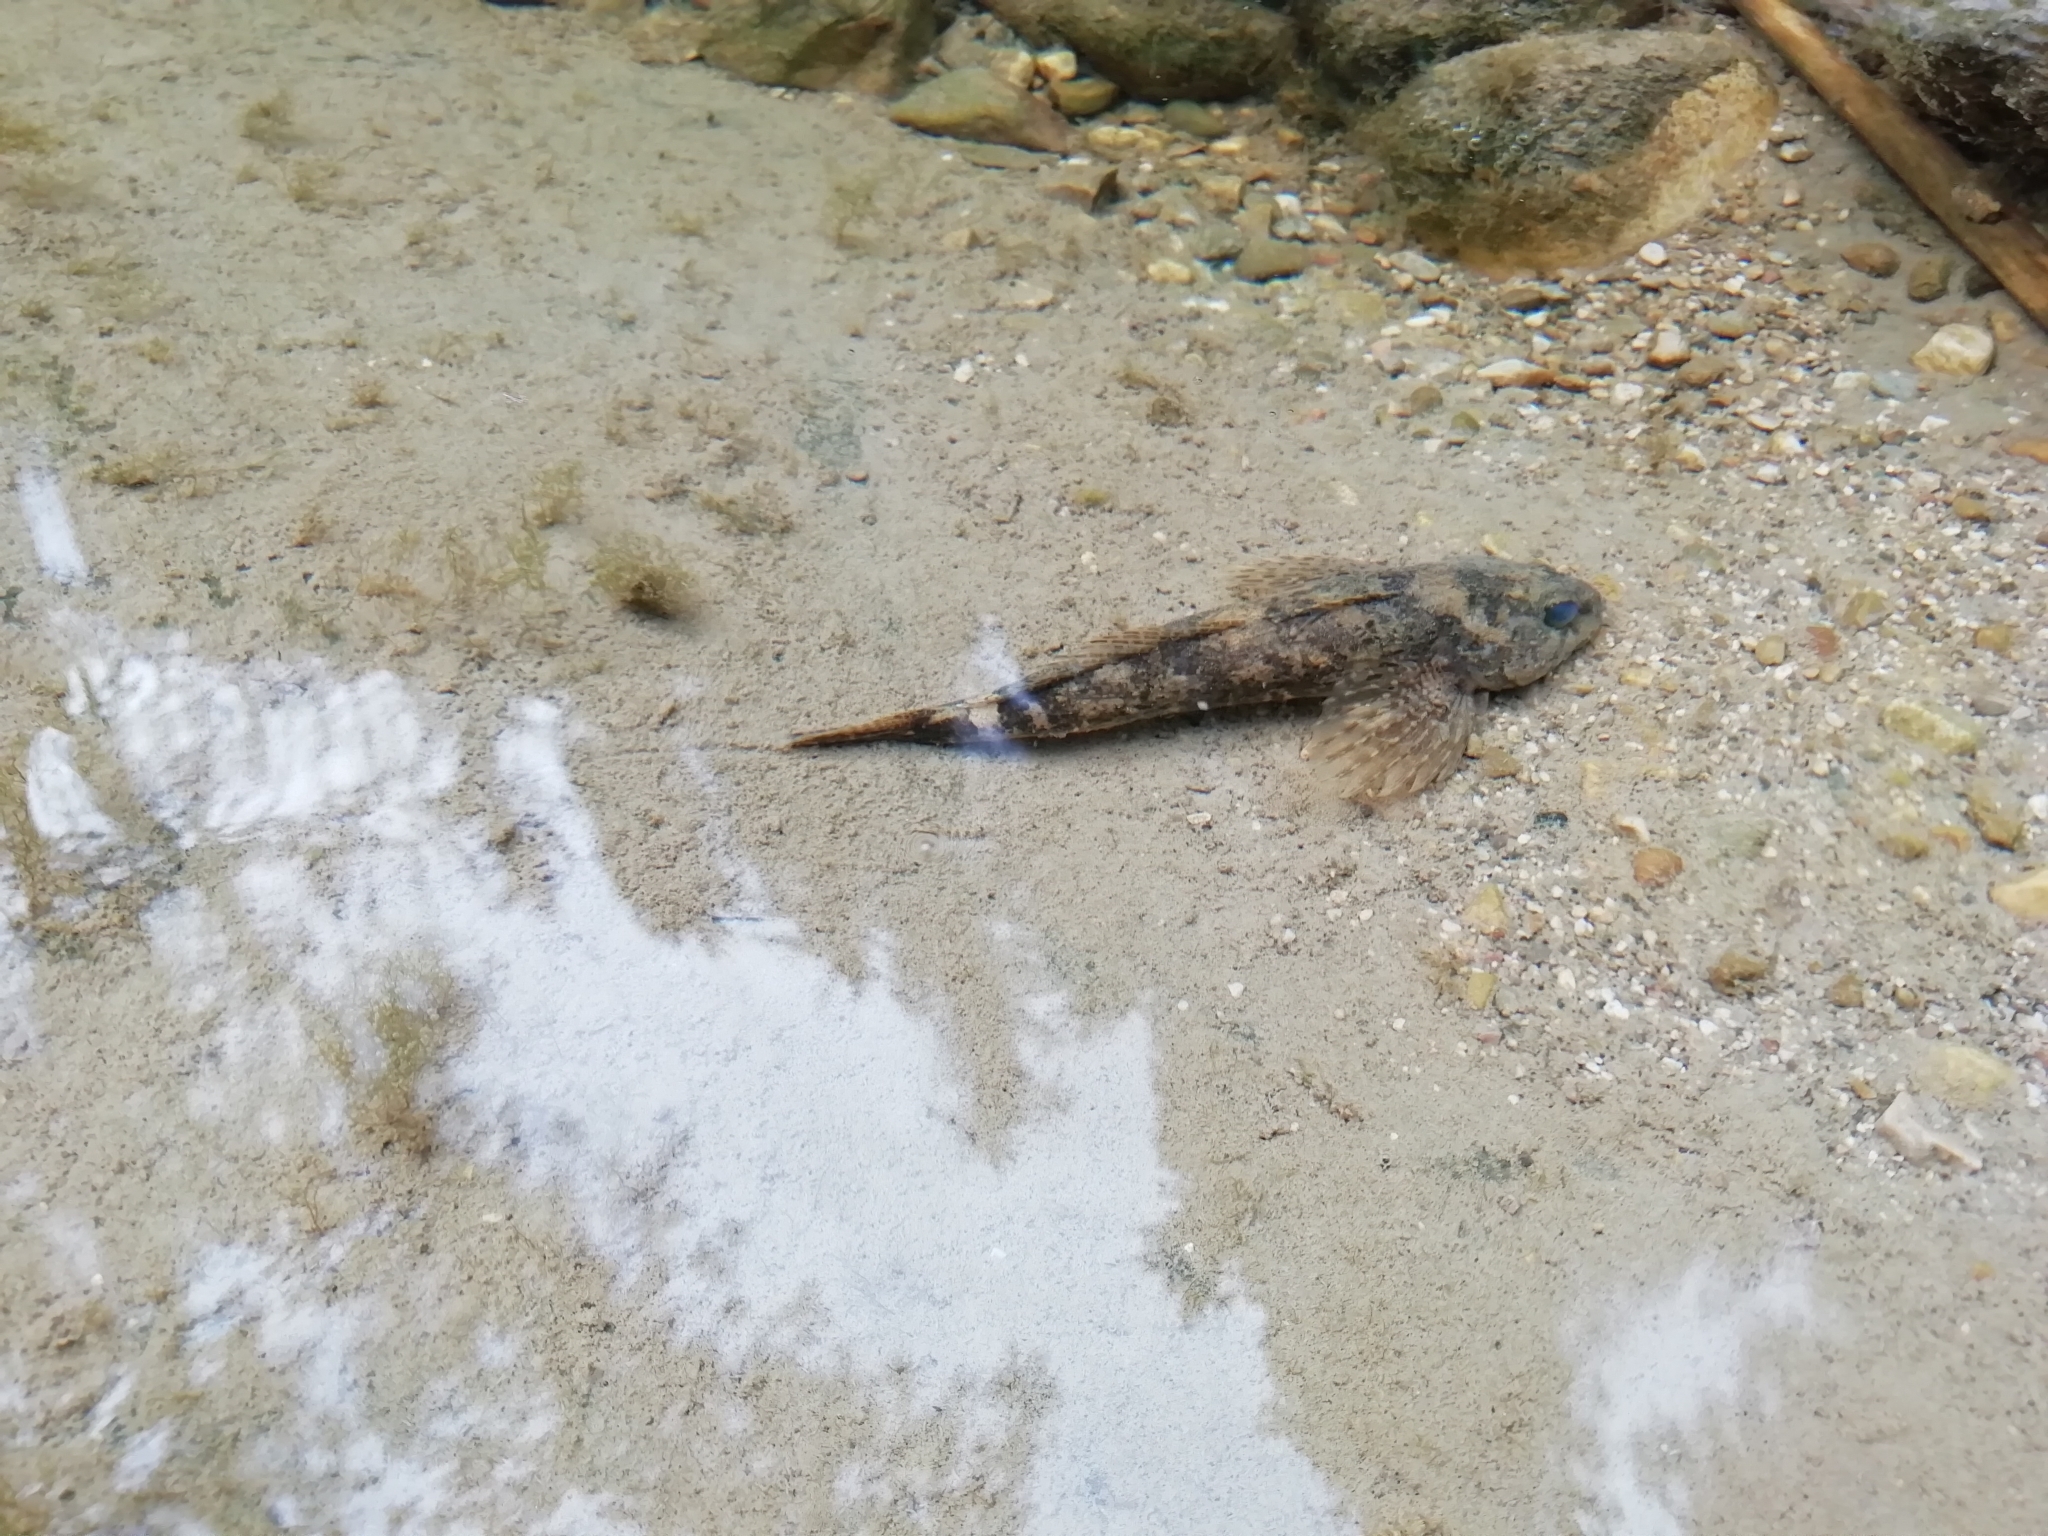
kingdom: Animalia
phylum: Chordata
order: Scorpaeniformes
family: Cottidae
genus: Cottus
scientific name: Cottus gobio
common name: Bullhead
